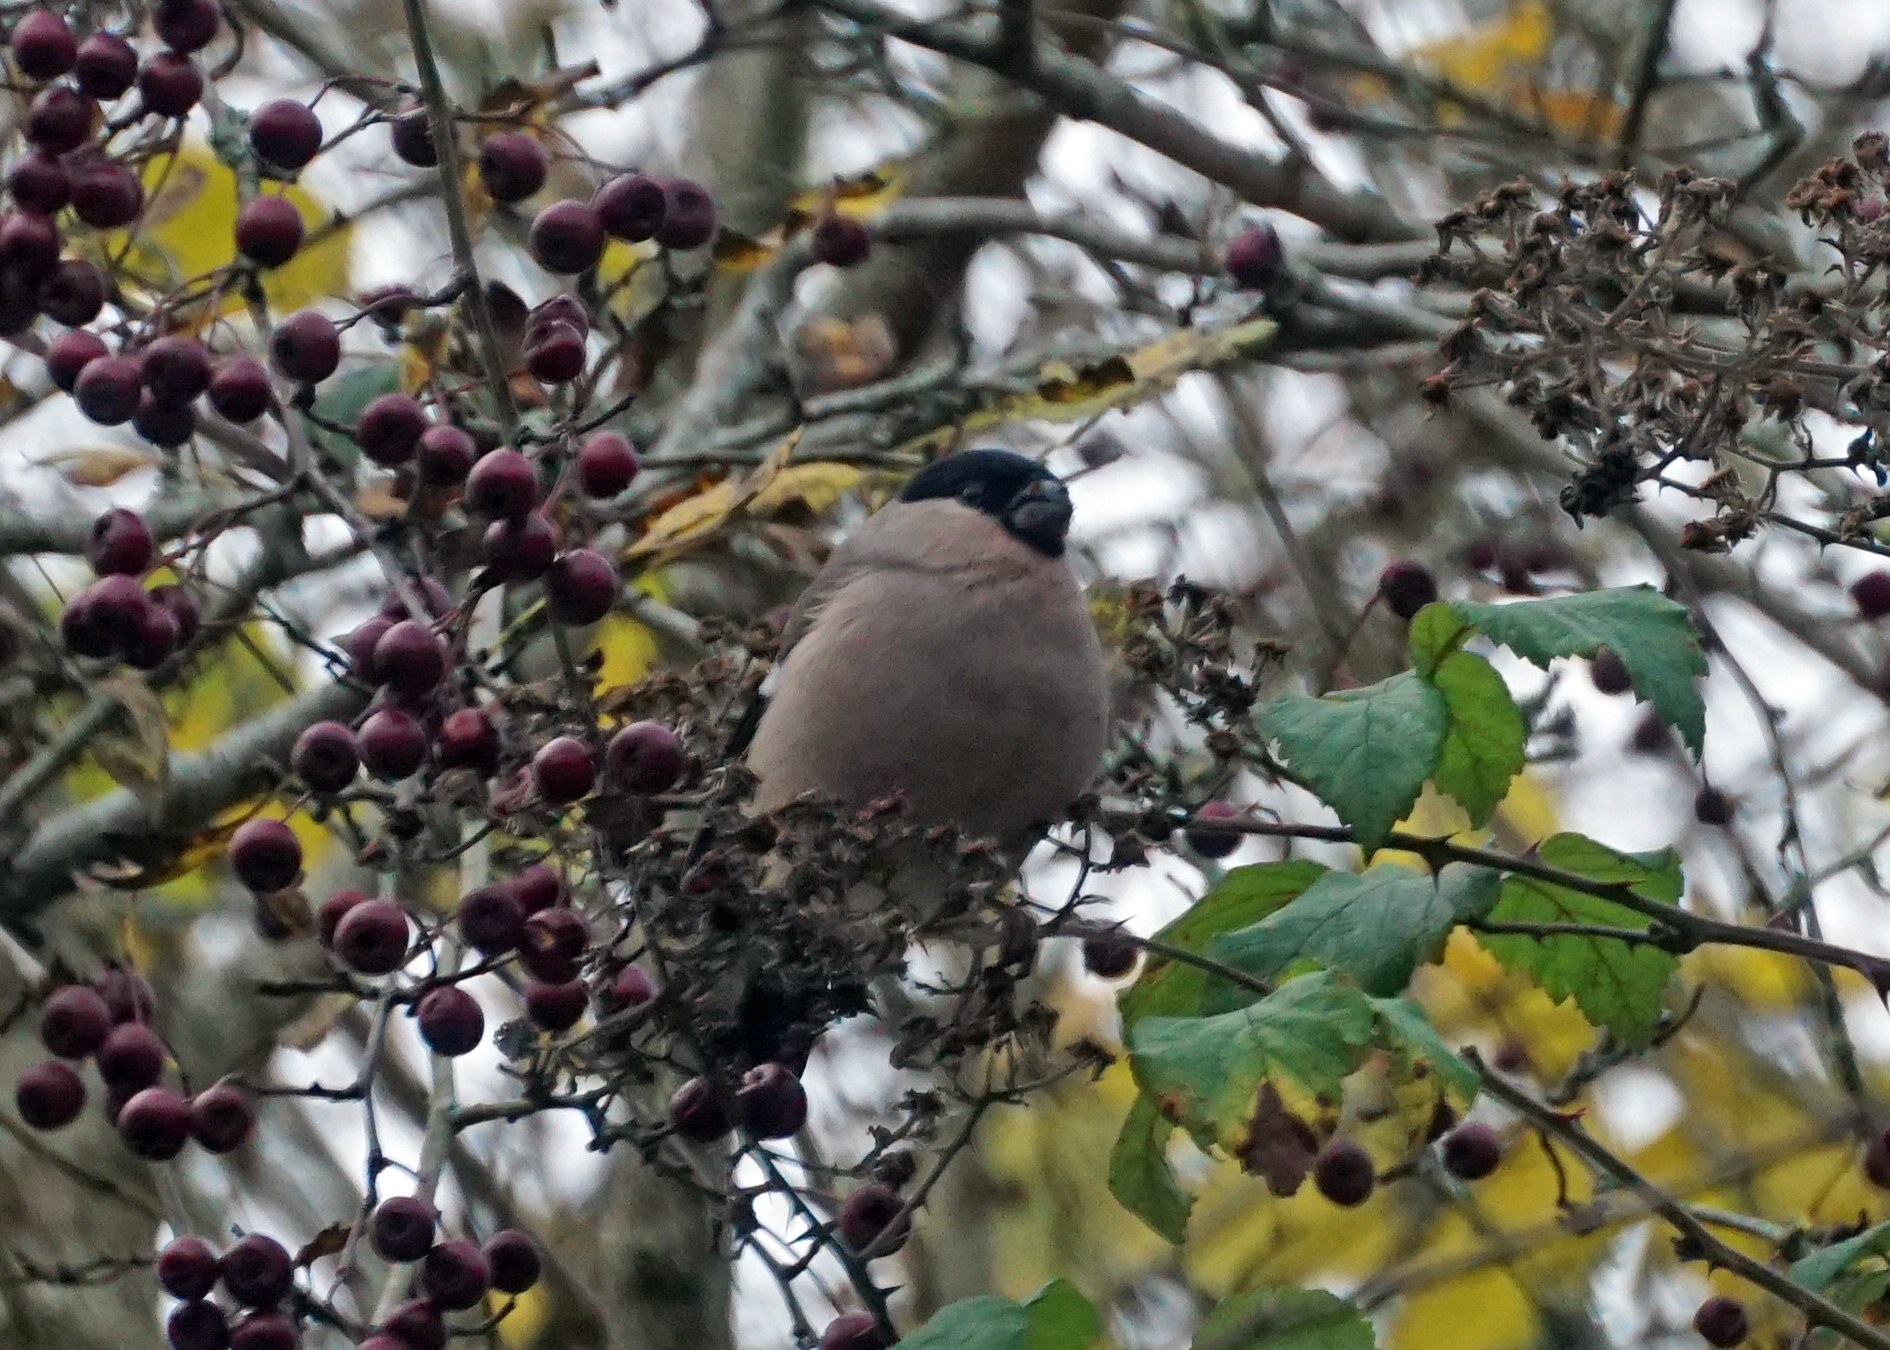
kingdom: Animalia
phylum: Chordata
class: Aves
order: Passeriformes
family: Fringillidae
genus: Pyrrhula
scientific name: Pyrrhula pyrrhula
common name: Eurasian bullfinch
